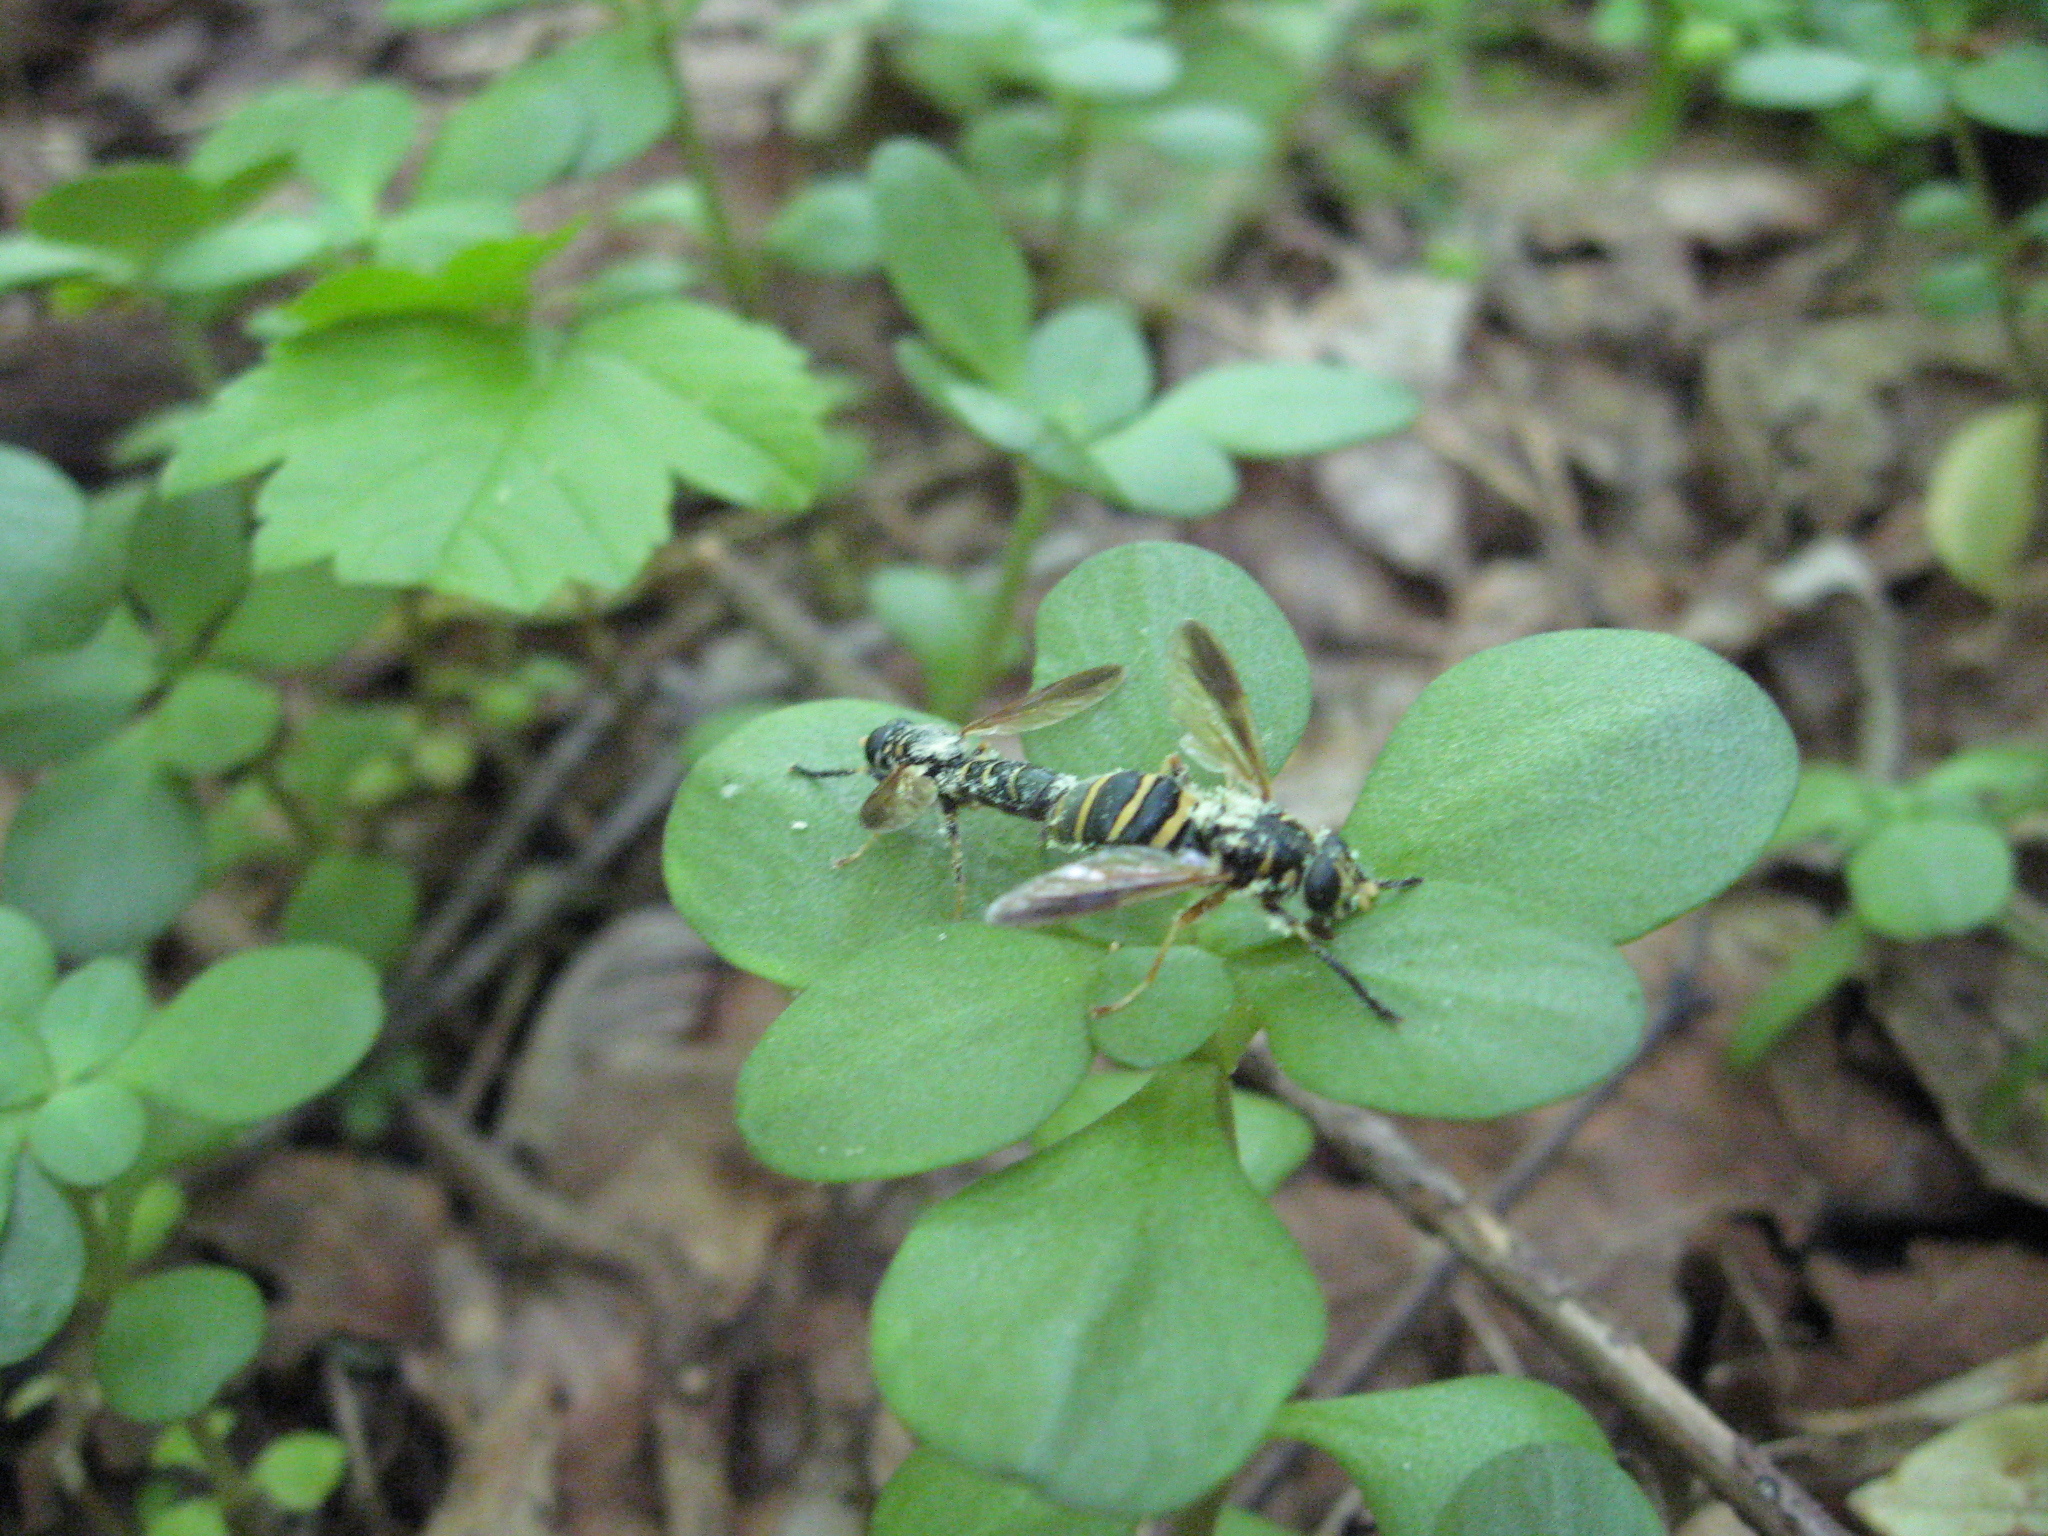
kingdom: Animalia
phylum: Arthropoda
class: Insecta
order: Diptera
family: Syrphidae
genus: Temnostoma
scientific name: Temnostoma
